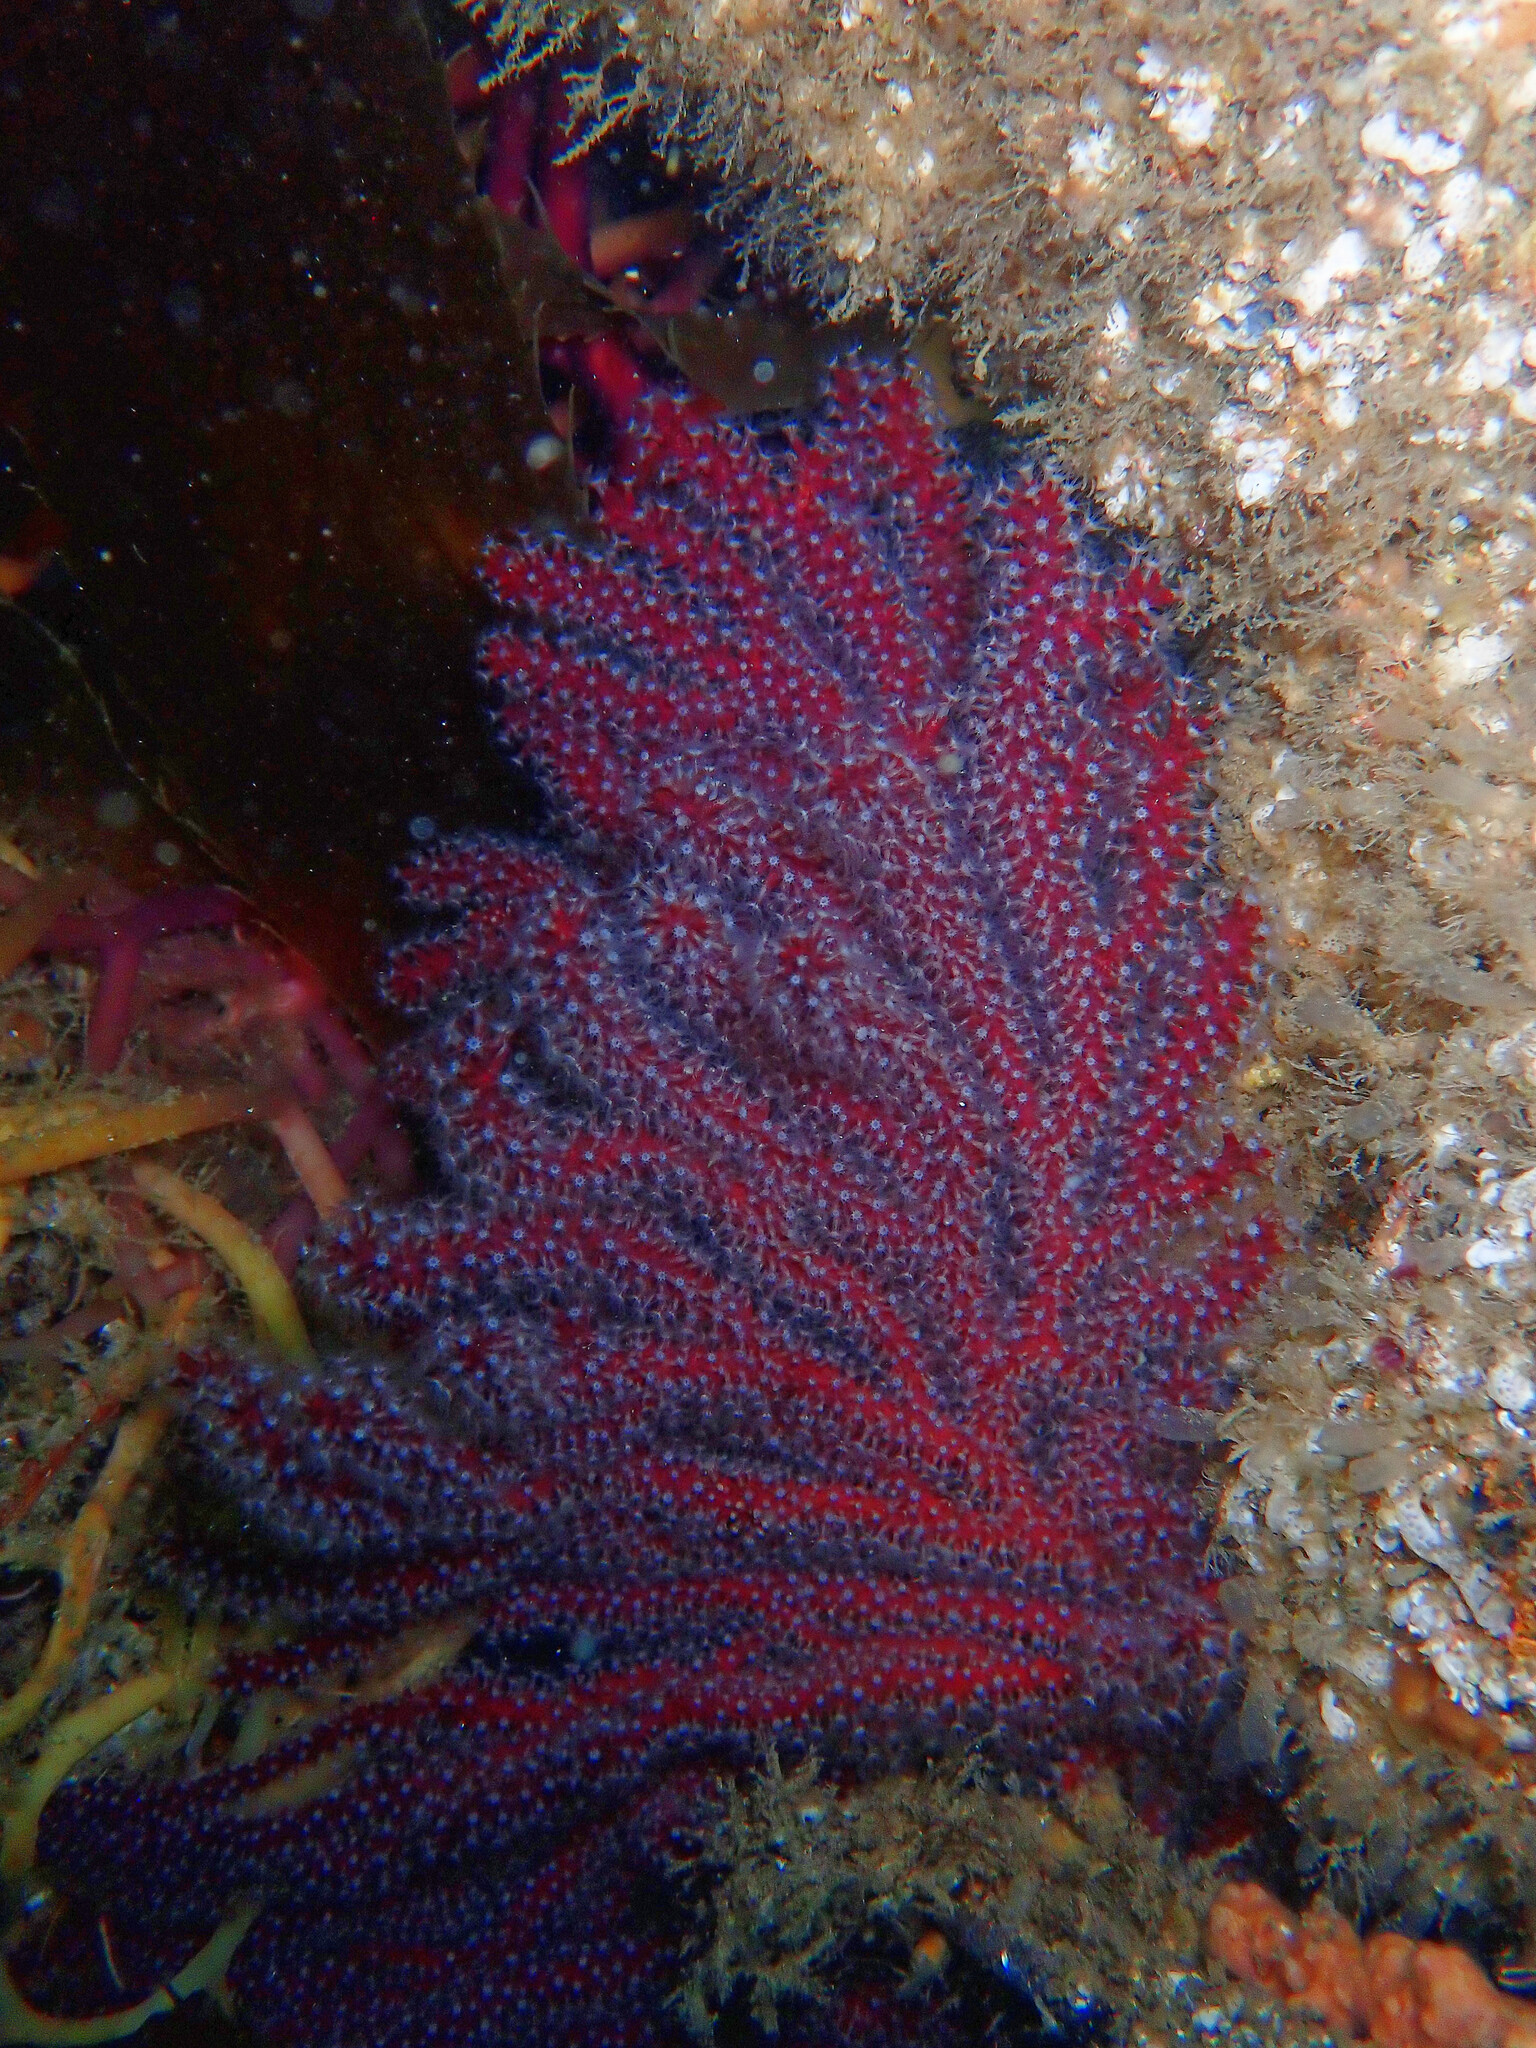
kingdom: Animalia
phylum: Cnidaria
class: Anthozoa
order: Malacalcyonacea
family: Plexauridae
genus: Muricea
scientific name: Muricea fruticosa
